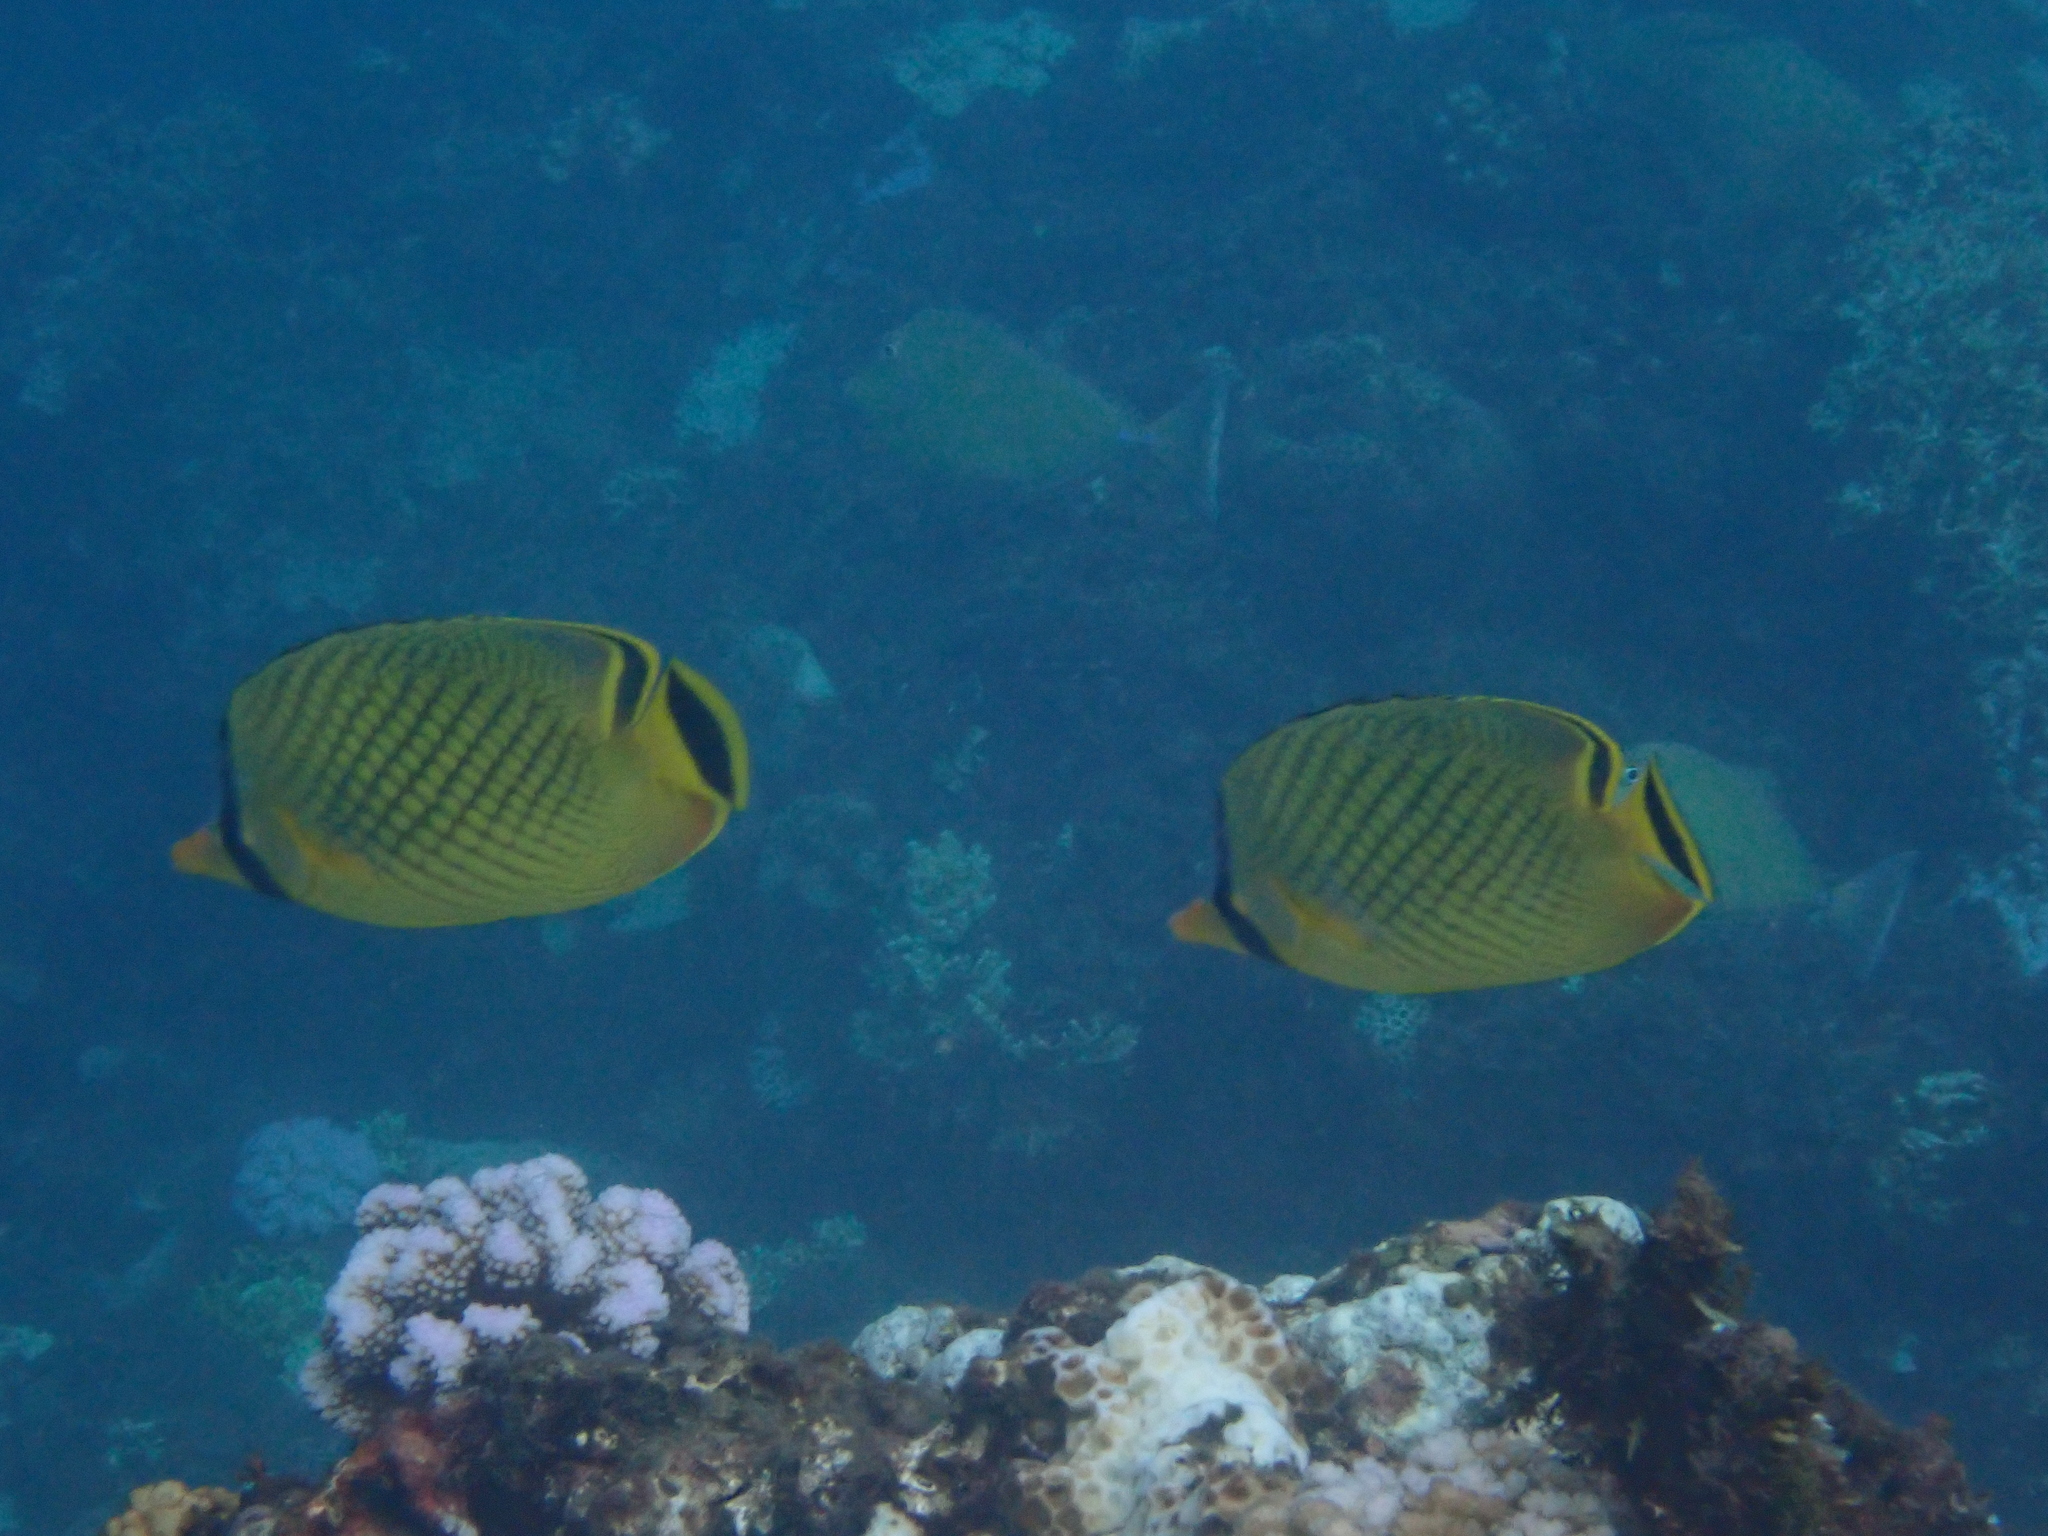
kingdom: Animalia
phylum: Chordata
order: Perciformes
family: Chaetodontidae
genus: Chaetodon
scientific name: Chaetodon rafflesii
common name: Latticed butterflyfish
